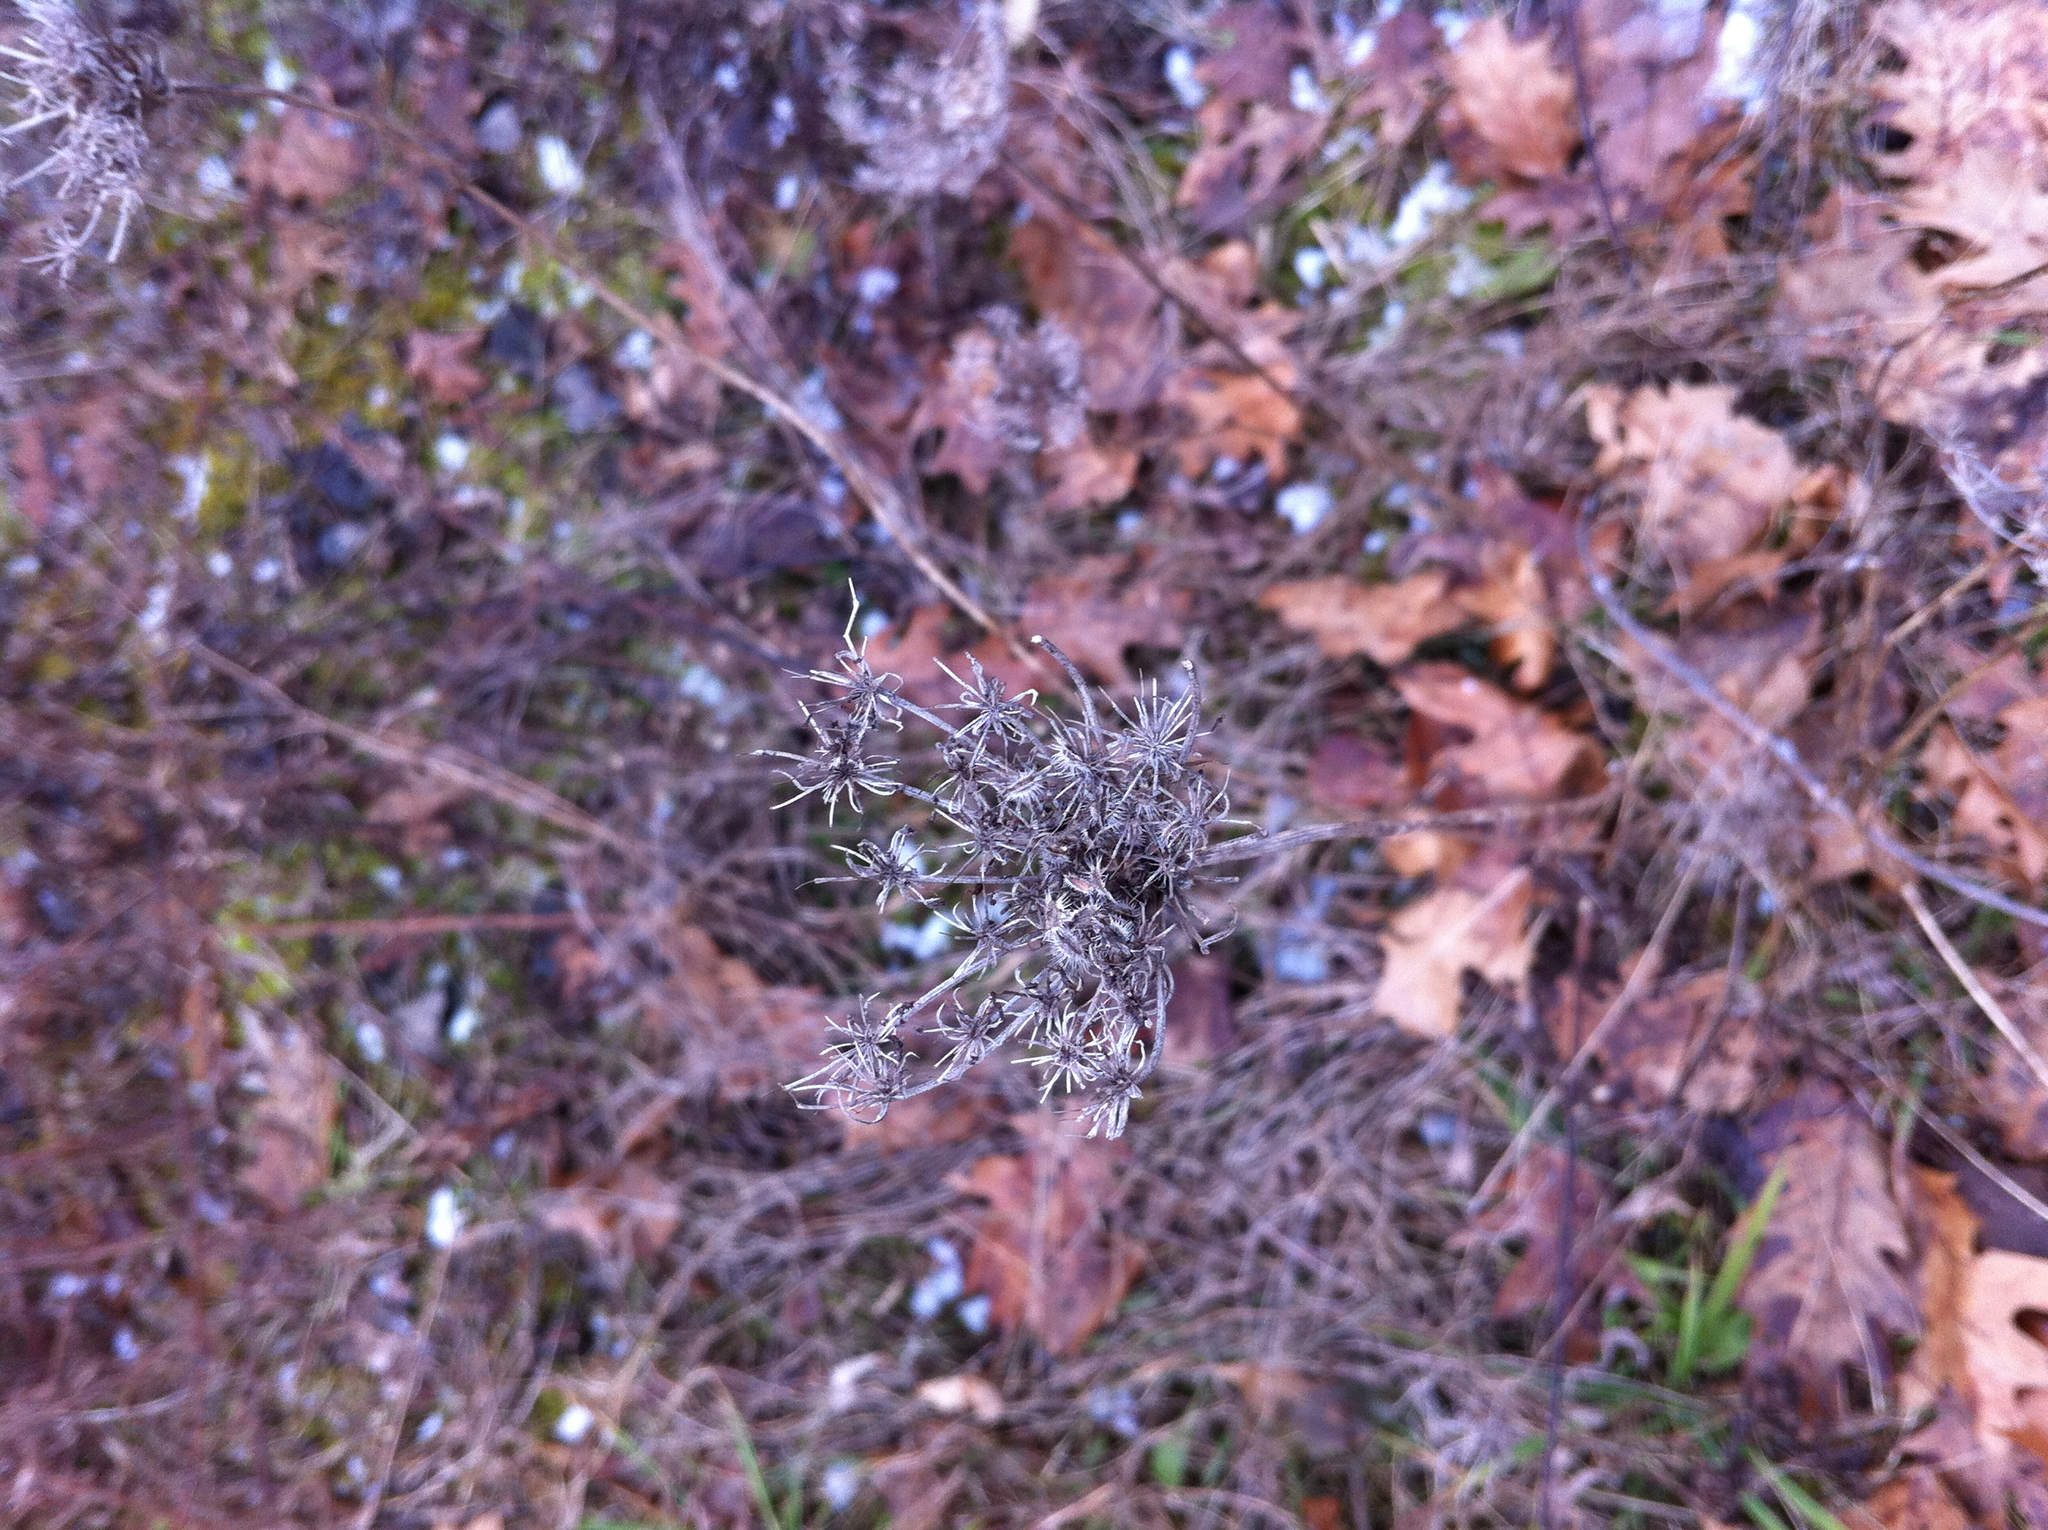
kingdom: Plantae
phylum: Tracheophyta
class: Magnoliopsida
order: Apiales
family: Apiaceae
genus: Daucus
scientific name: Daucus carota
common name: Wild carrot
